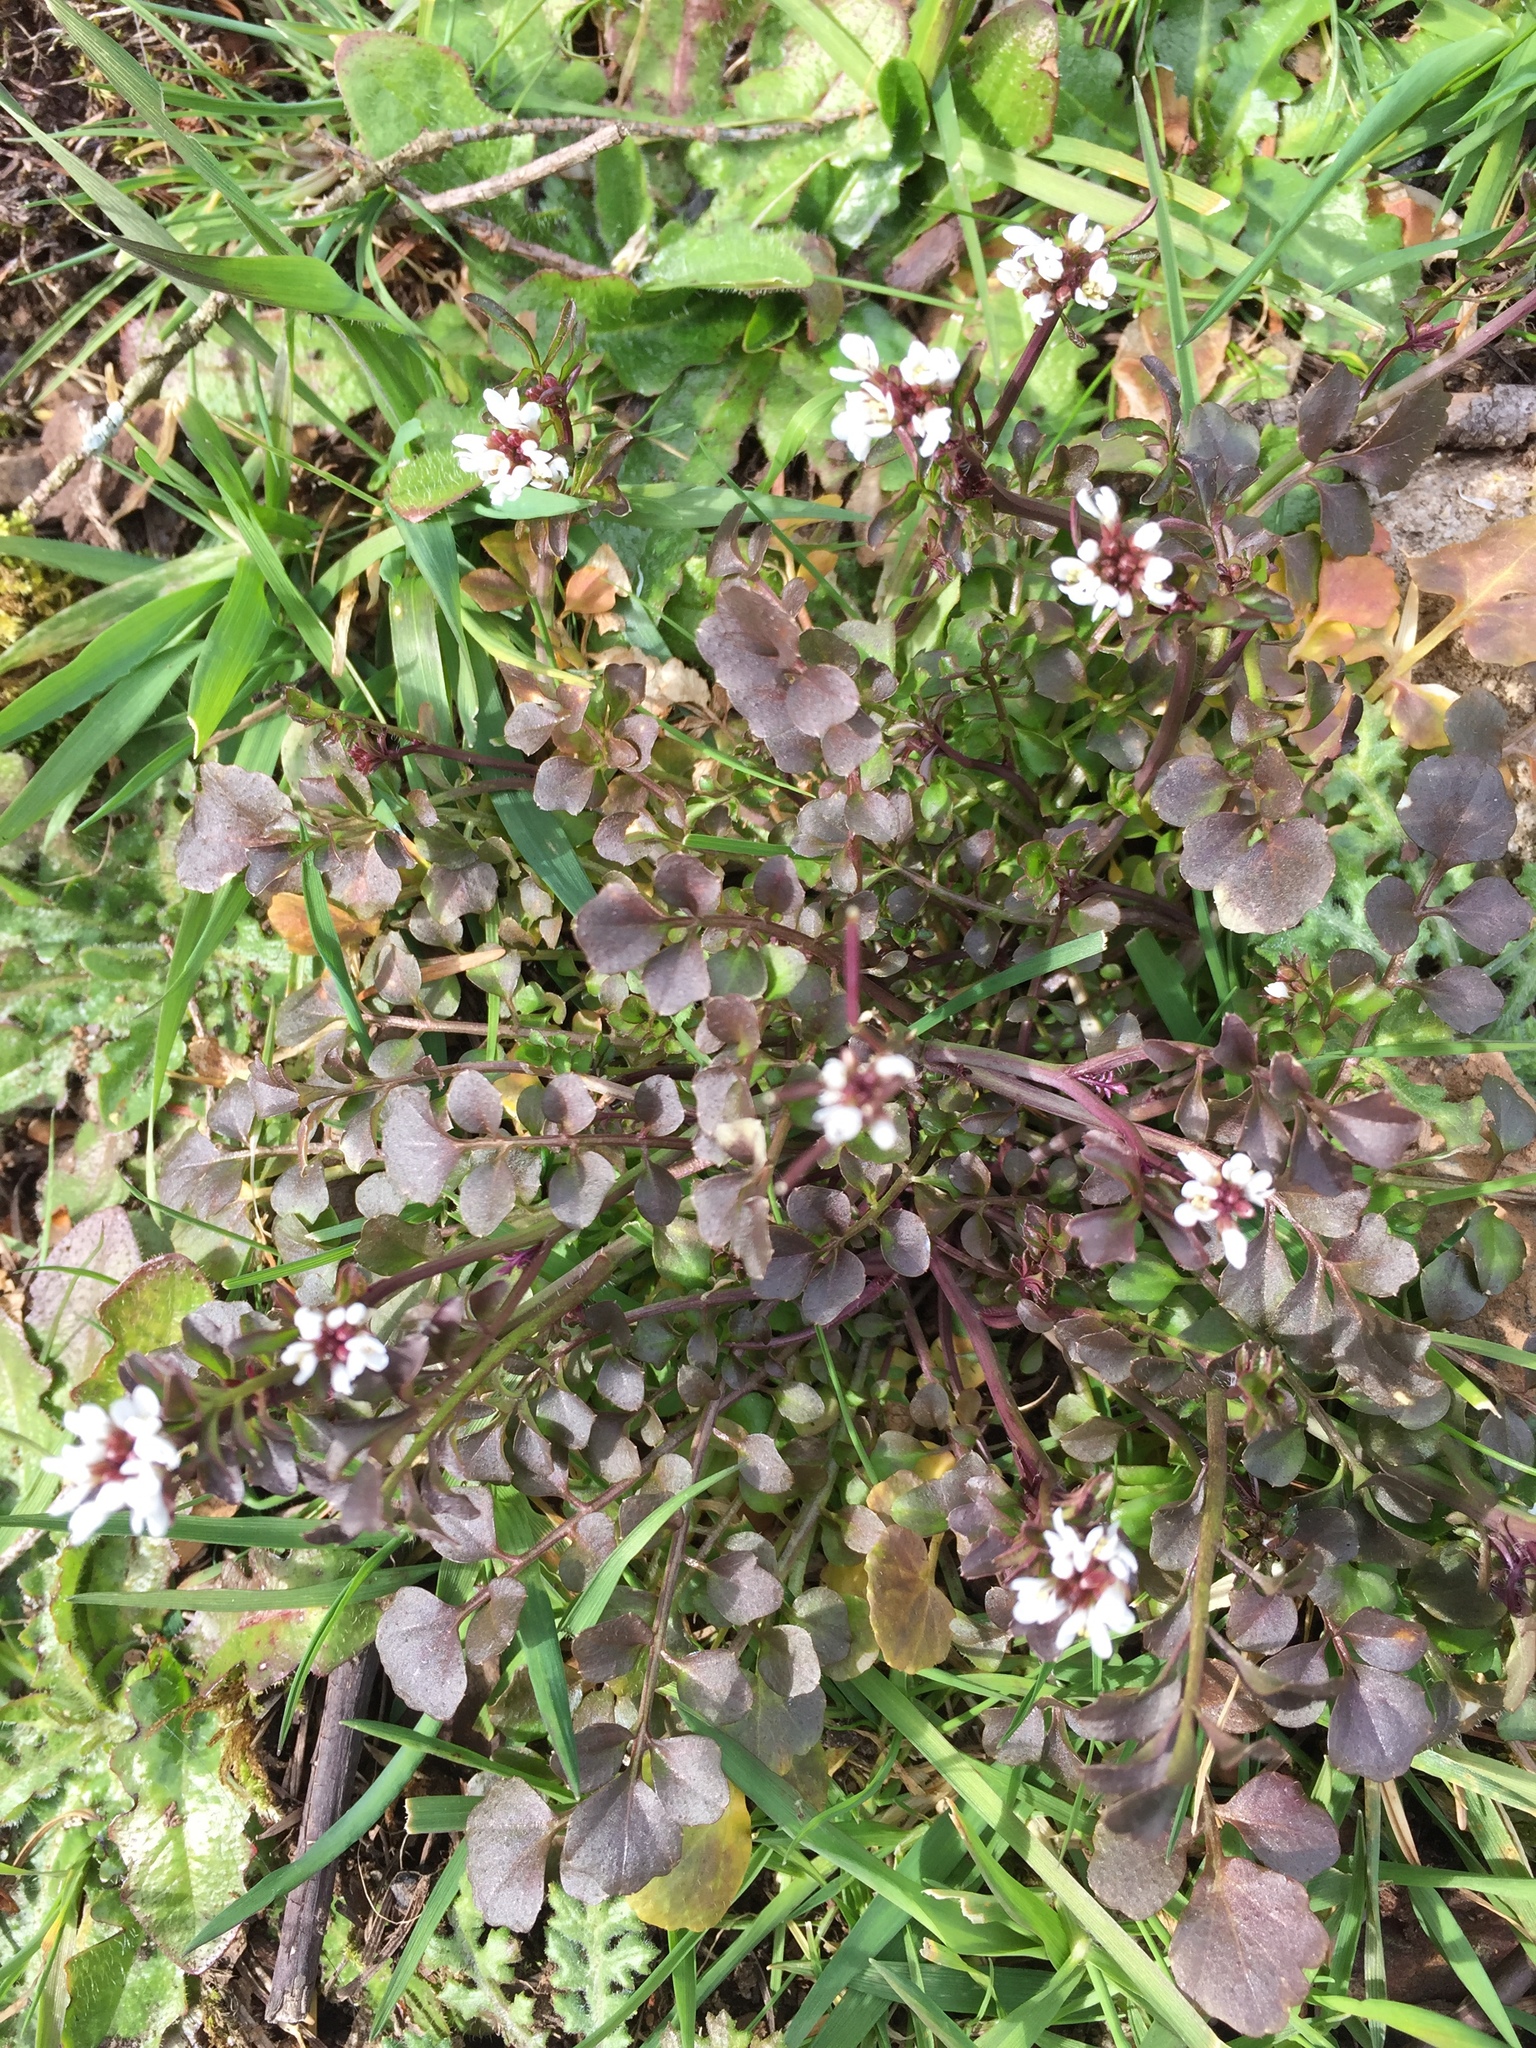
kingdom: Plantae
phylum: Tracheophyta
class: Magnoliopsida
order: Brassicales
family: Brassicaceae
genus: Cardamine
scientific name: Cardamine hirsuta
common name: Hairy bittercress
